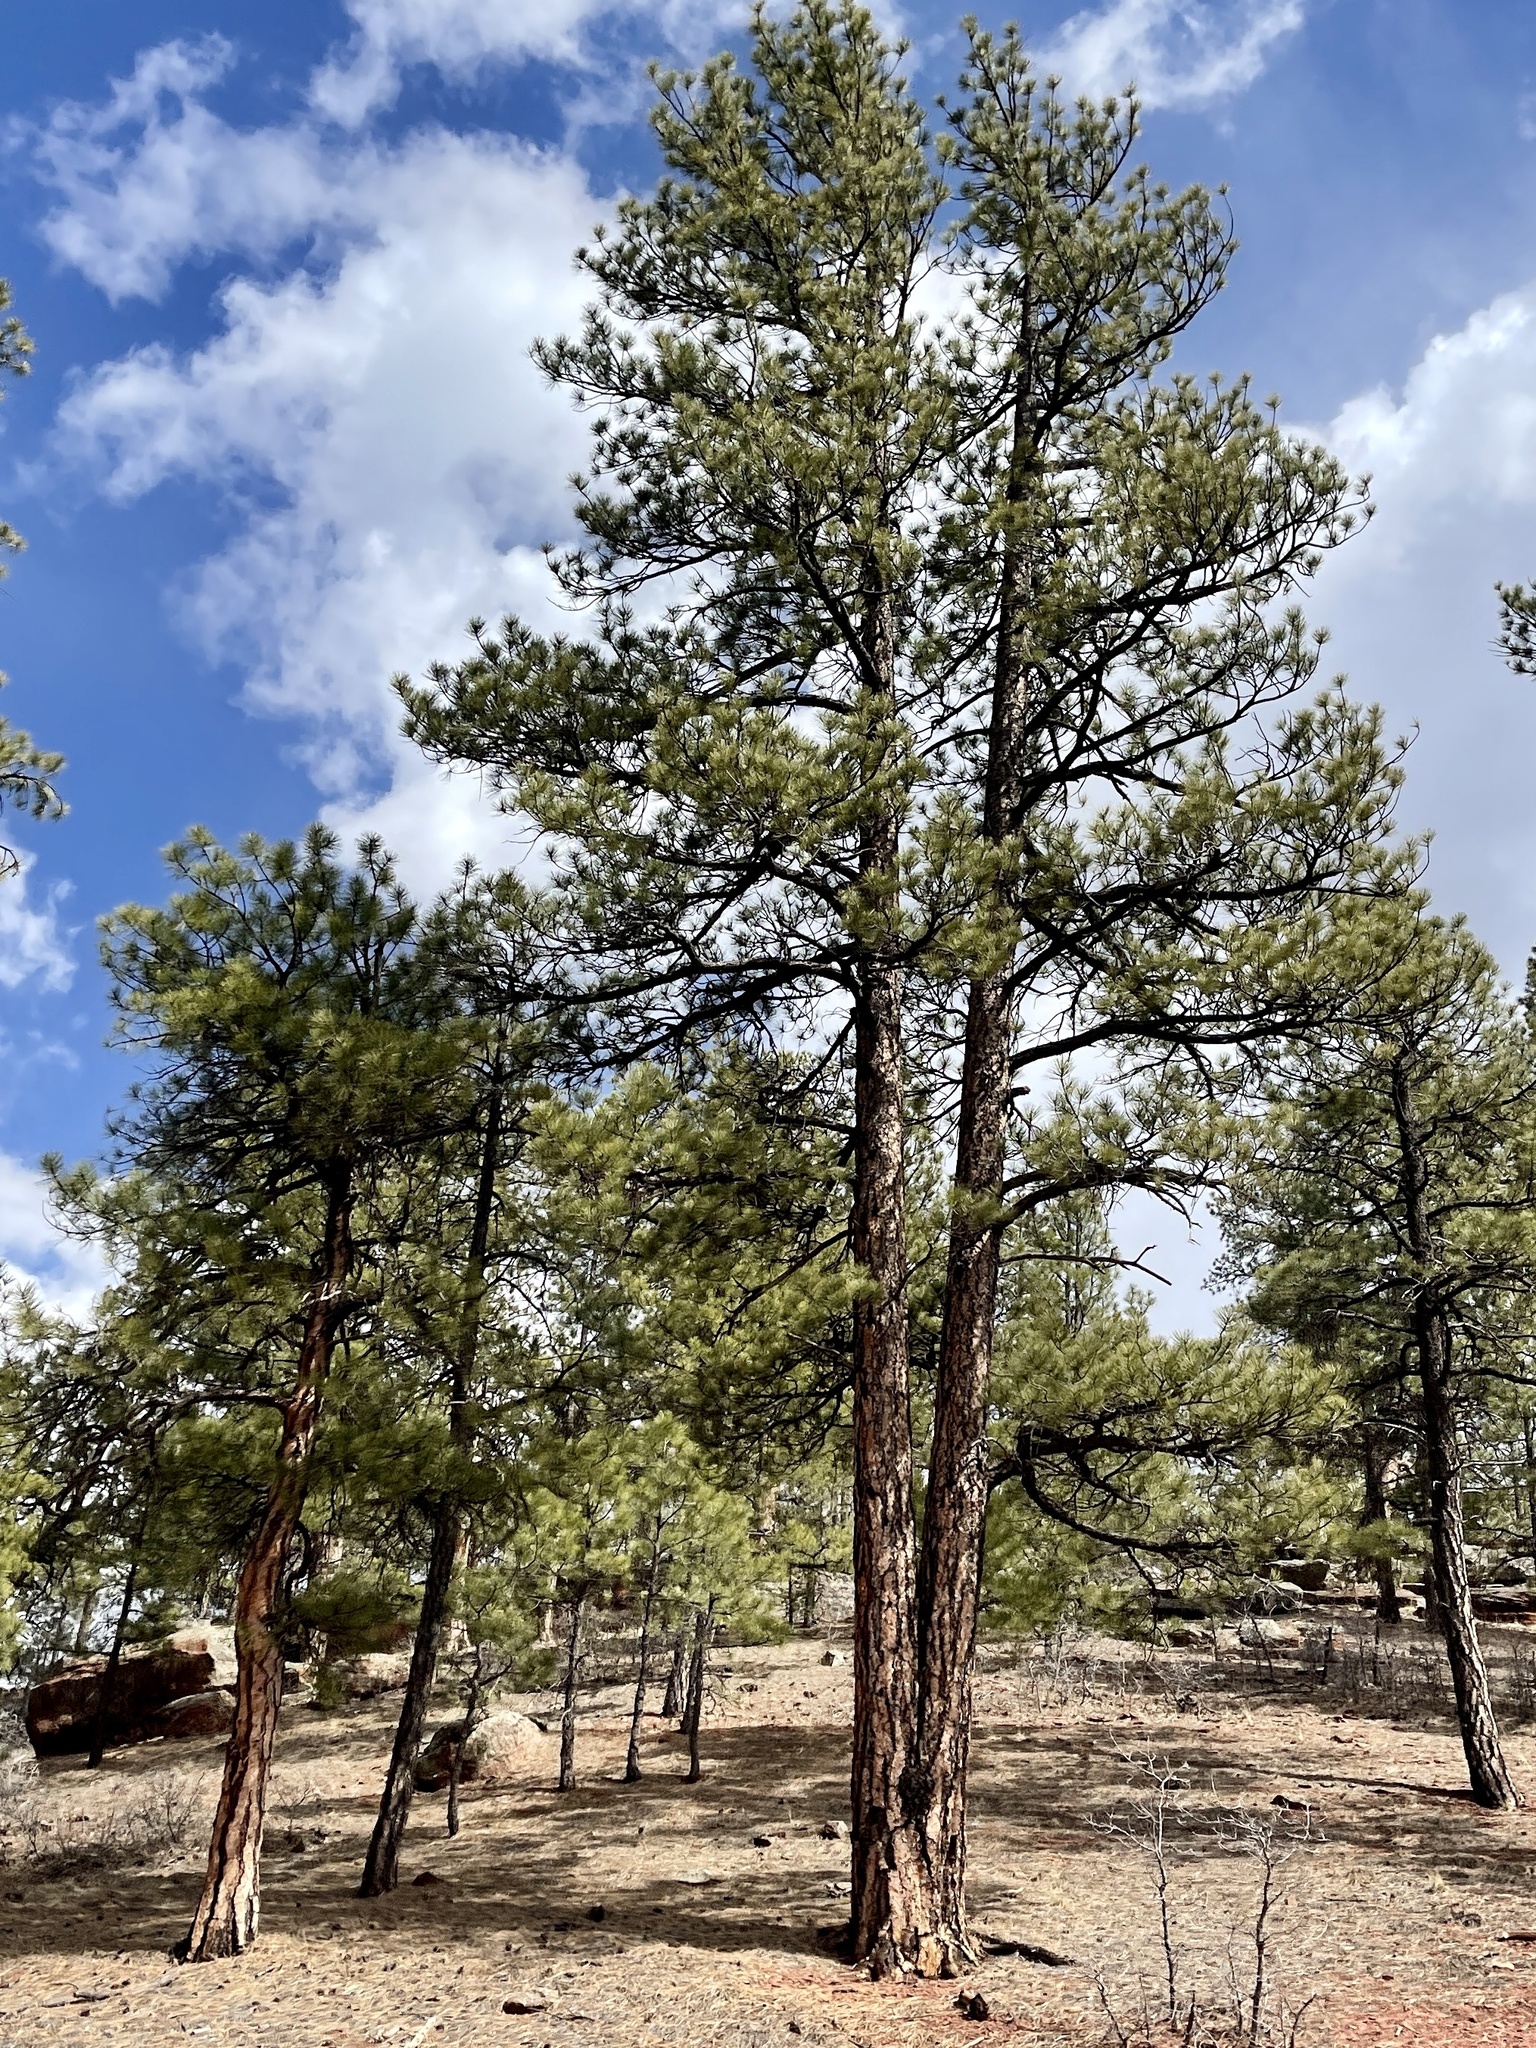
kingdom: Plantae
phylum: Tracheophyta
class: Pinopsida
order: Pinales
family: Pinaceae
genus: Pinus
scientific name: Pinus ponderosa
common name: Western yellow-pine
